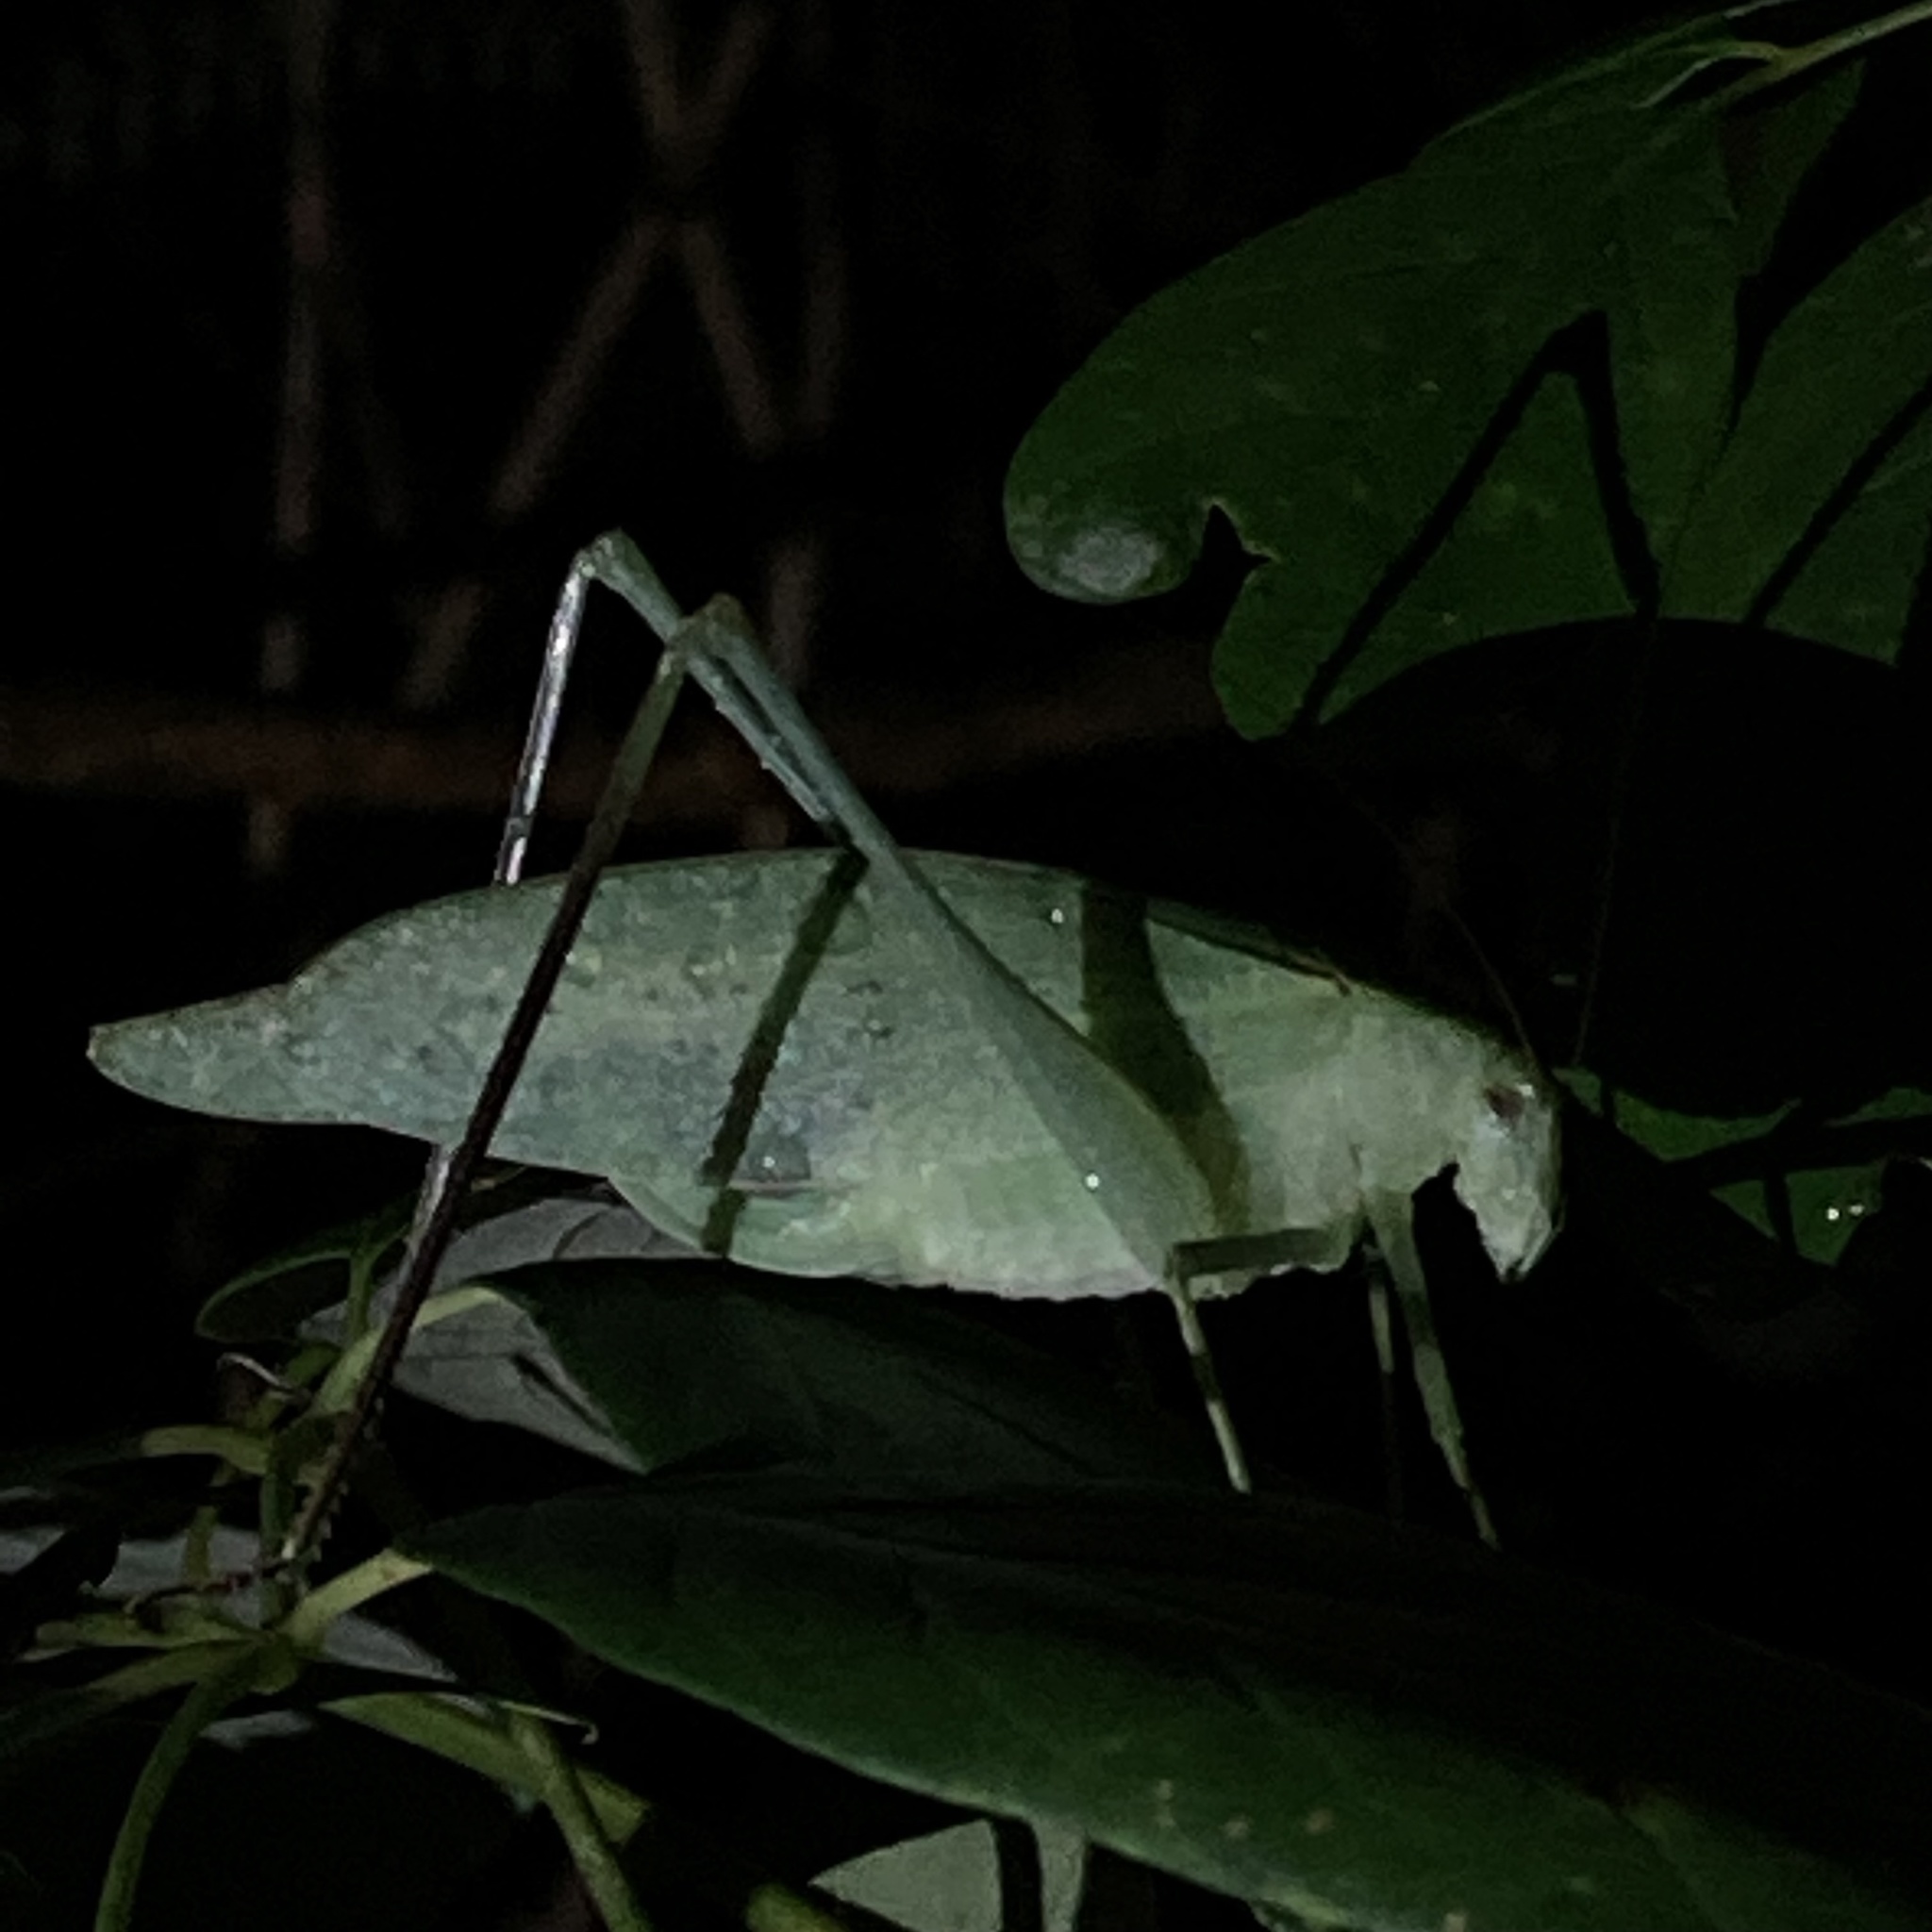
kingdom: Animalia
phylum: Arthropoda
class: Insecta
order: Orthoptera
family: Tettigoniidae
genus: Microcentrum
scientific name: Microcentrum retinerve
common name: Angular-winged katydid
